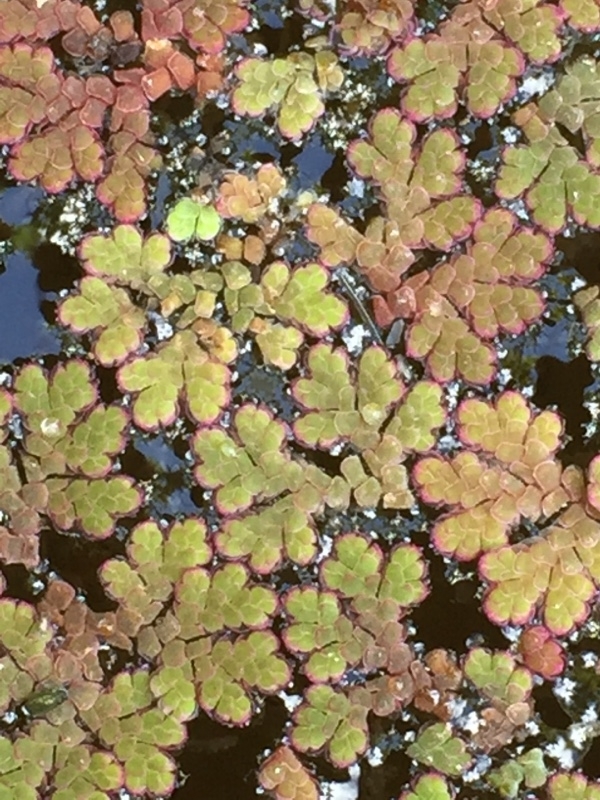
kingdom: Plantae
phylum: Tracheophyta
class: Polypodiopsida
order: Salviniales
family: Salviniaceae
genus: Azolla
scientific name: Azolla filiculoides
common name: Water fern
